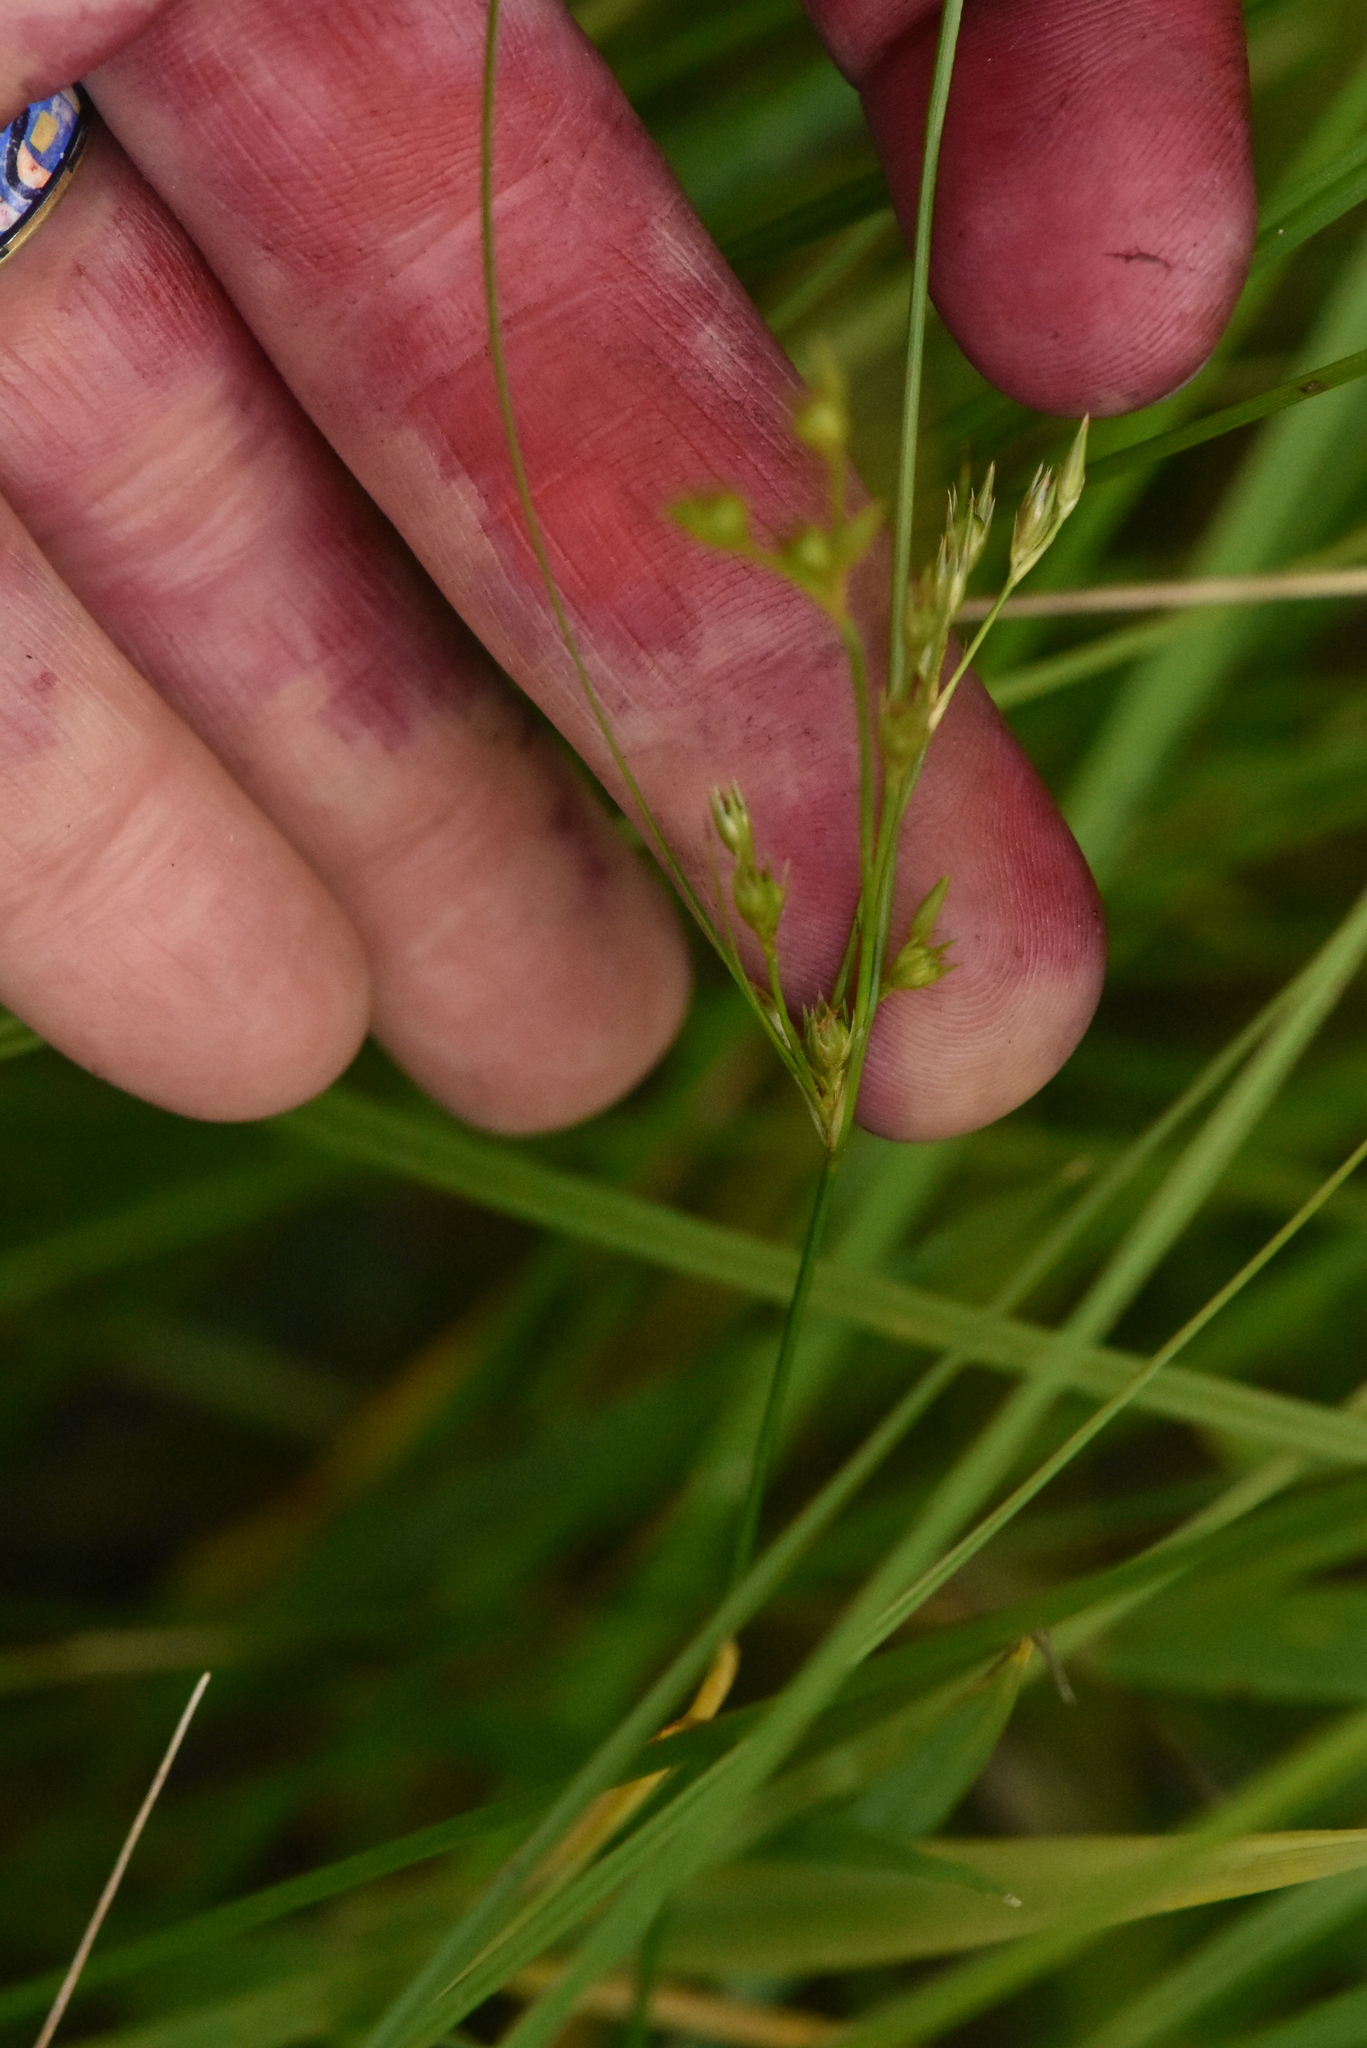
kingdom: Plantae
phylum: Tracheophyta
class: Liliopsida
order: Poales
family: Juncaceae
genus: Juncus
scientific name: Juncus tenuis
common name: Slender rush
